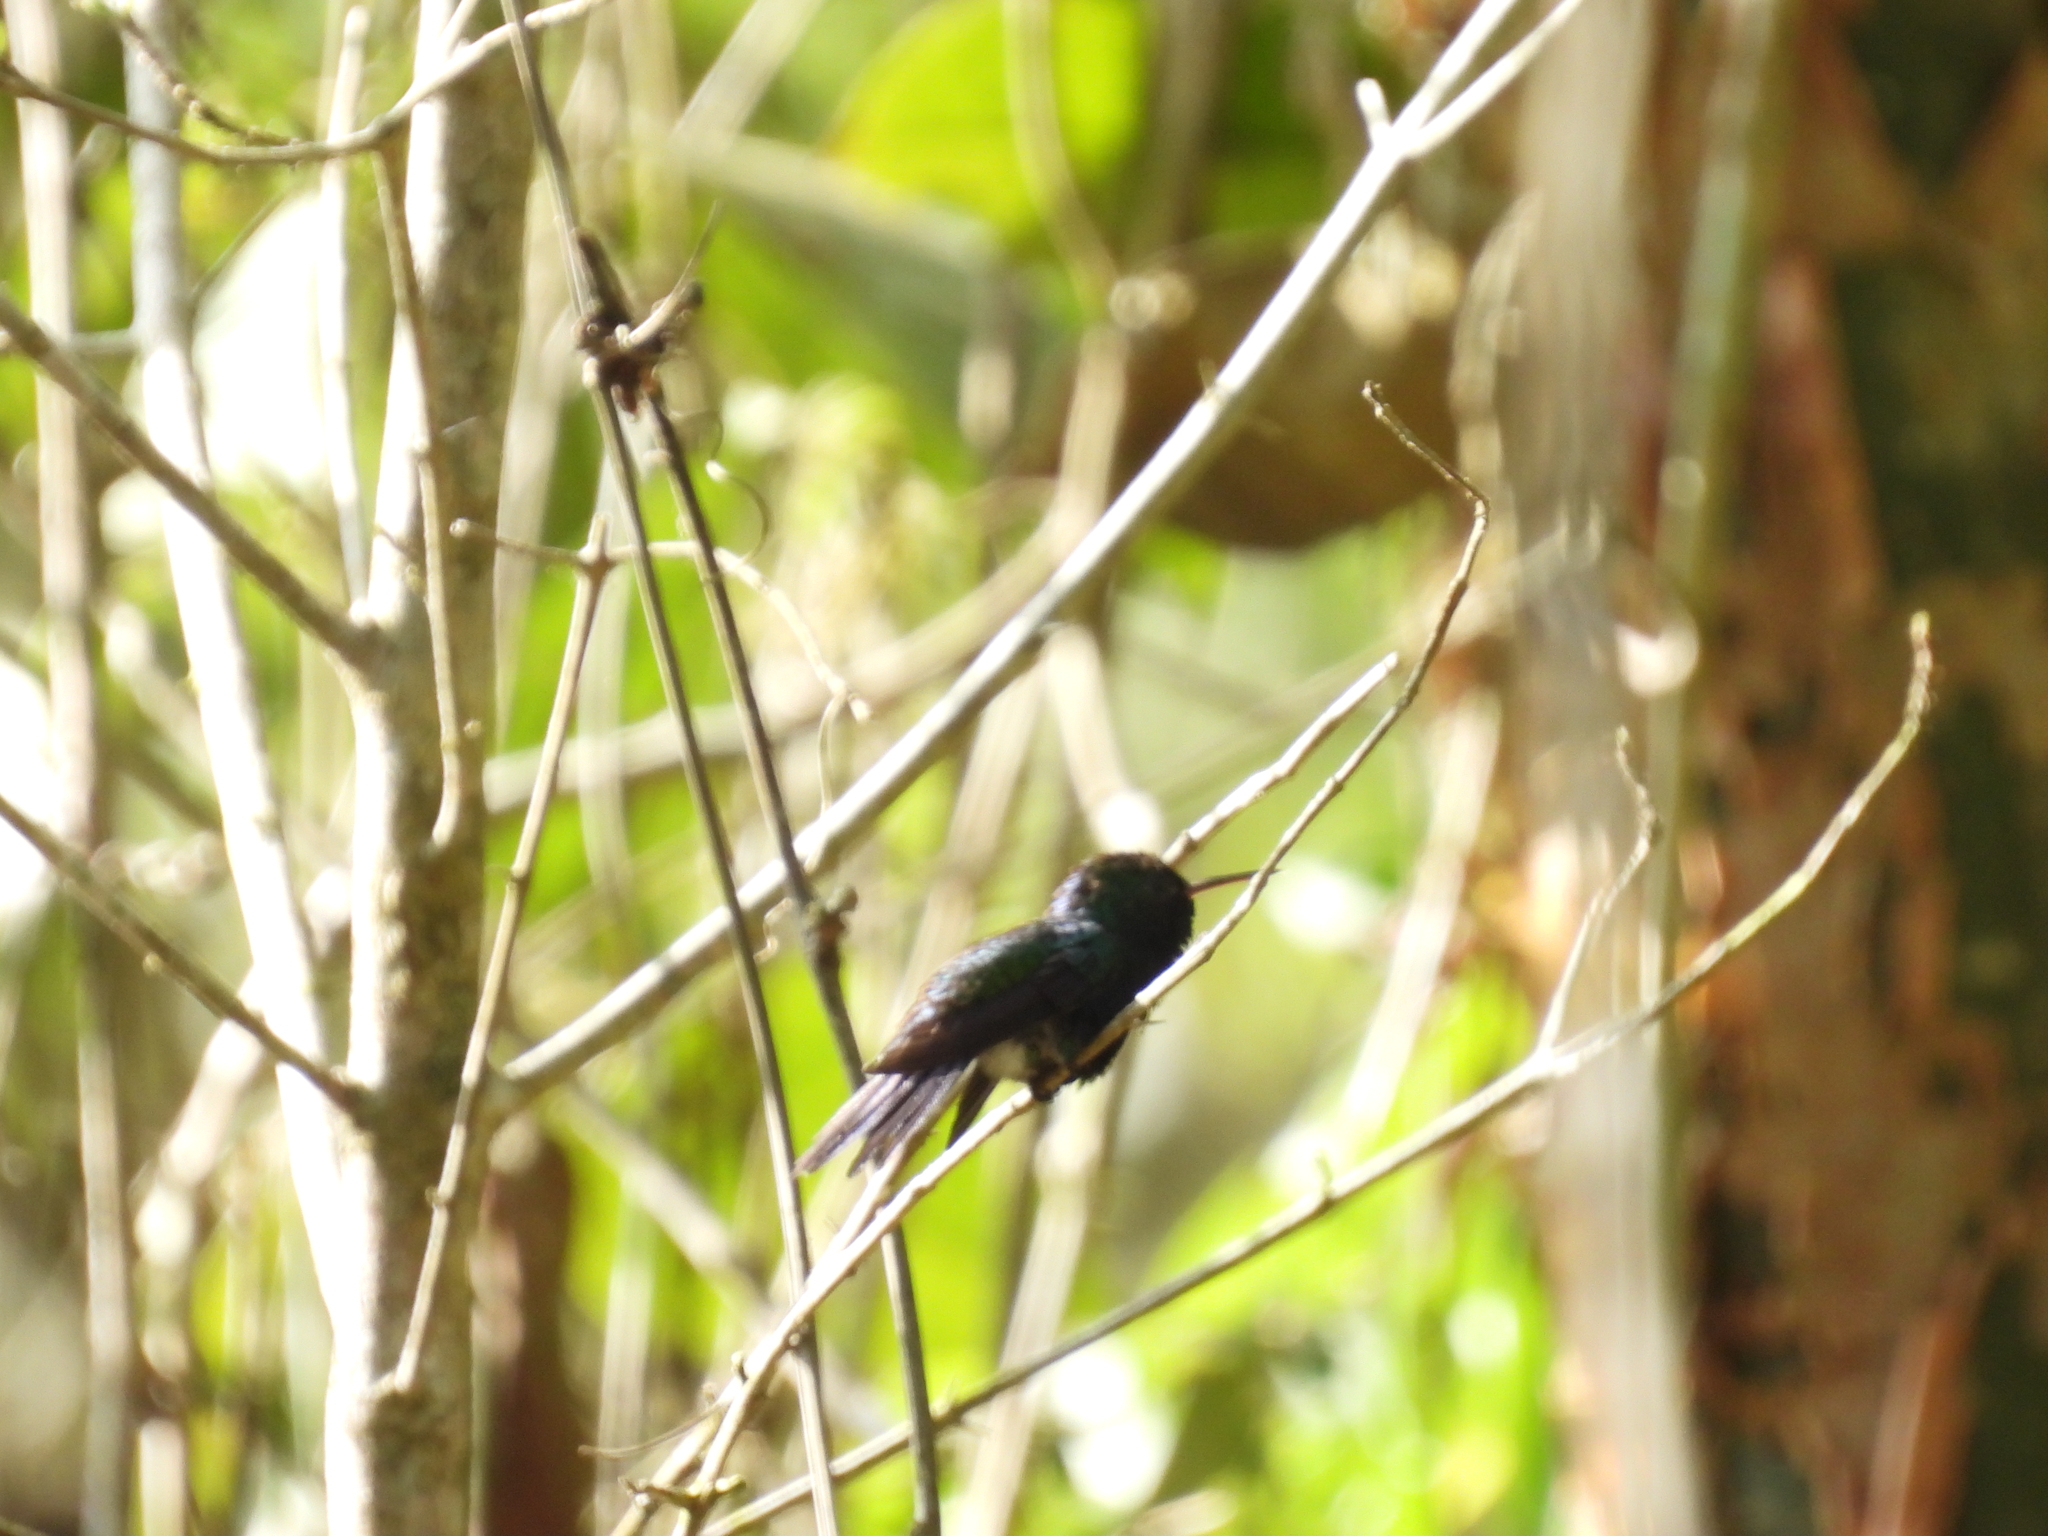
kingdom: Animalia
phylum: Chordata
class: Aves
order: Apodiformes
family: Trochilidae
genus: Chlorestes
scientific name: Chlorestes julie
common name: Violet-bellied hummingbird
